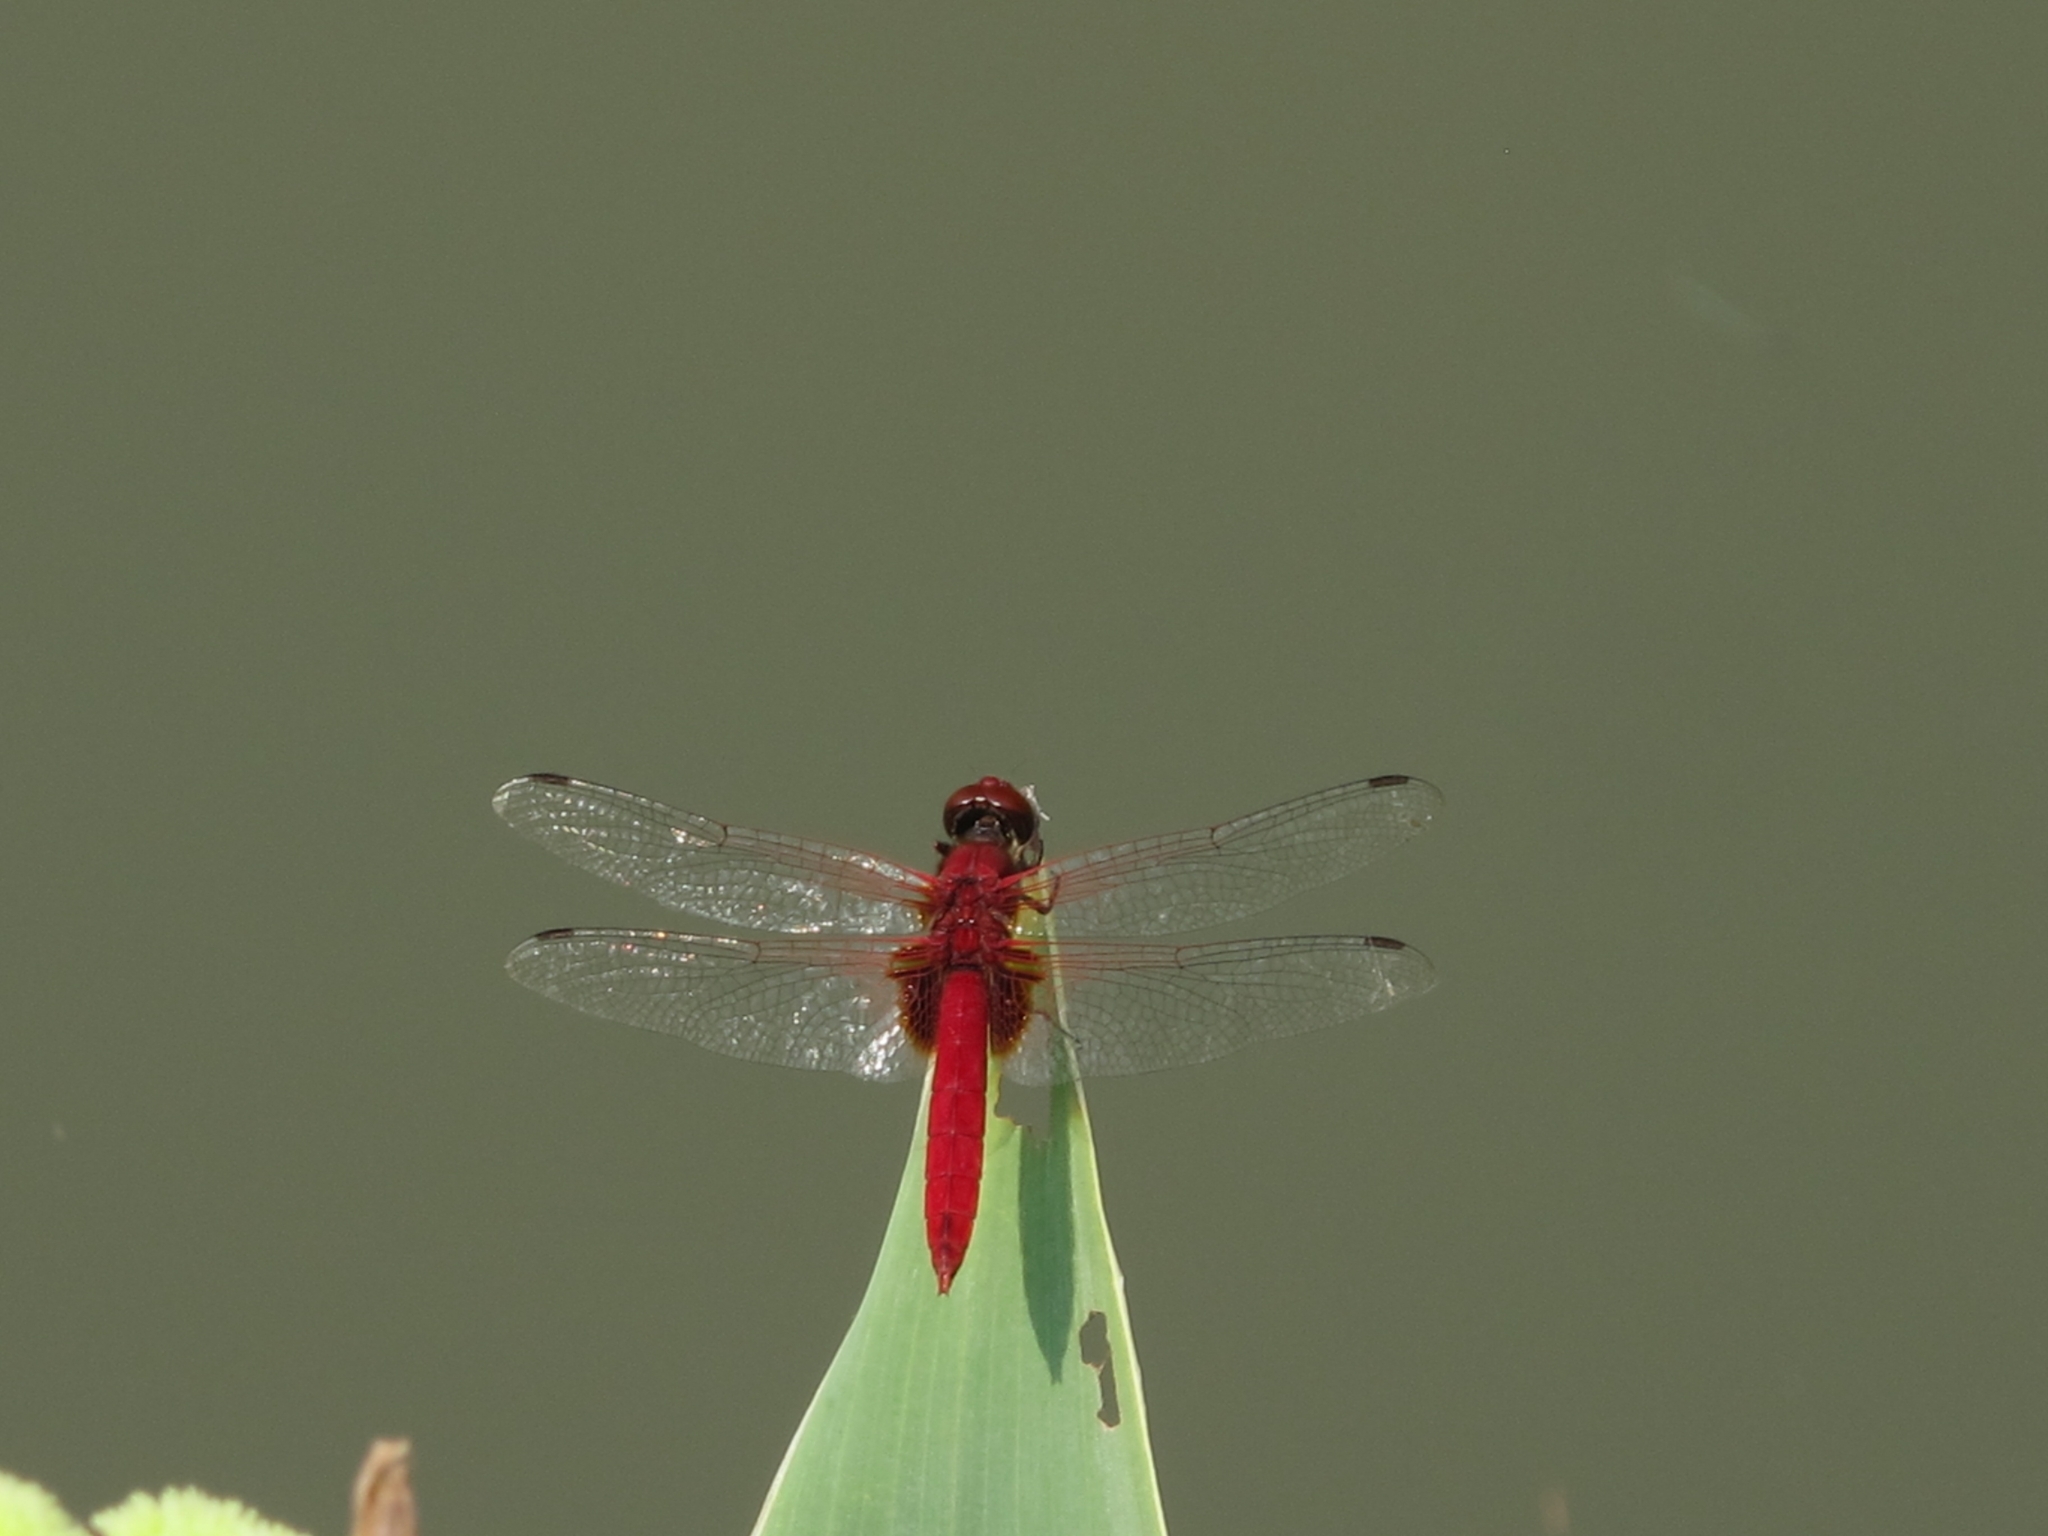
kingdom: Animalia
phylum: Arthropoda
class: Insecta
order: Odonata
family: Libellulidae
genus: Urothemis
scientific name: Urothemis signata
